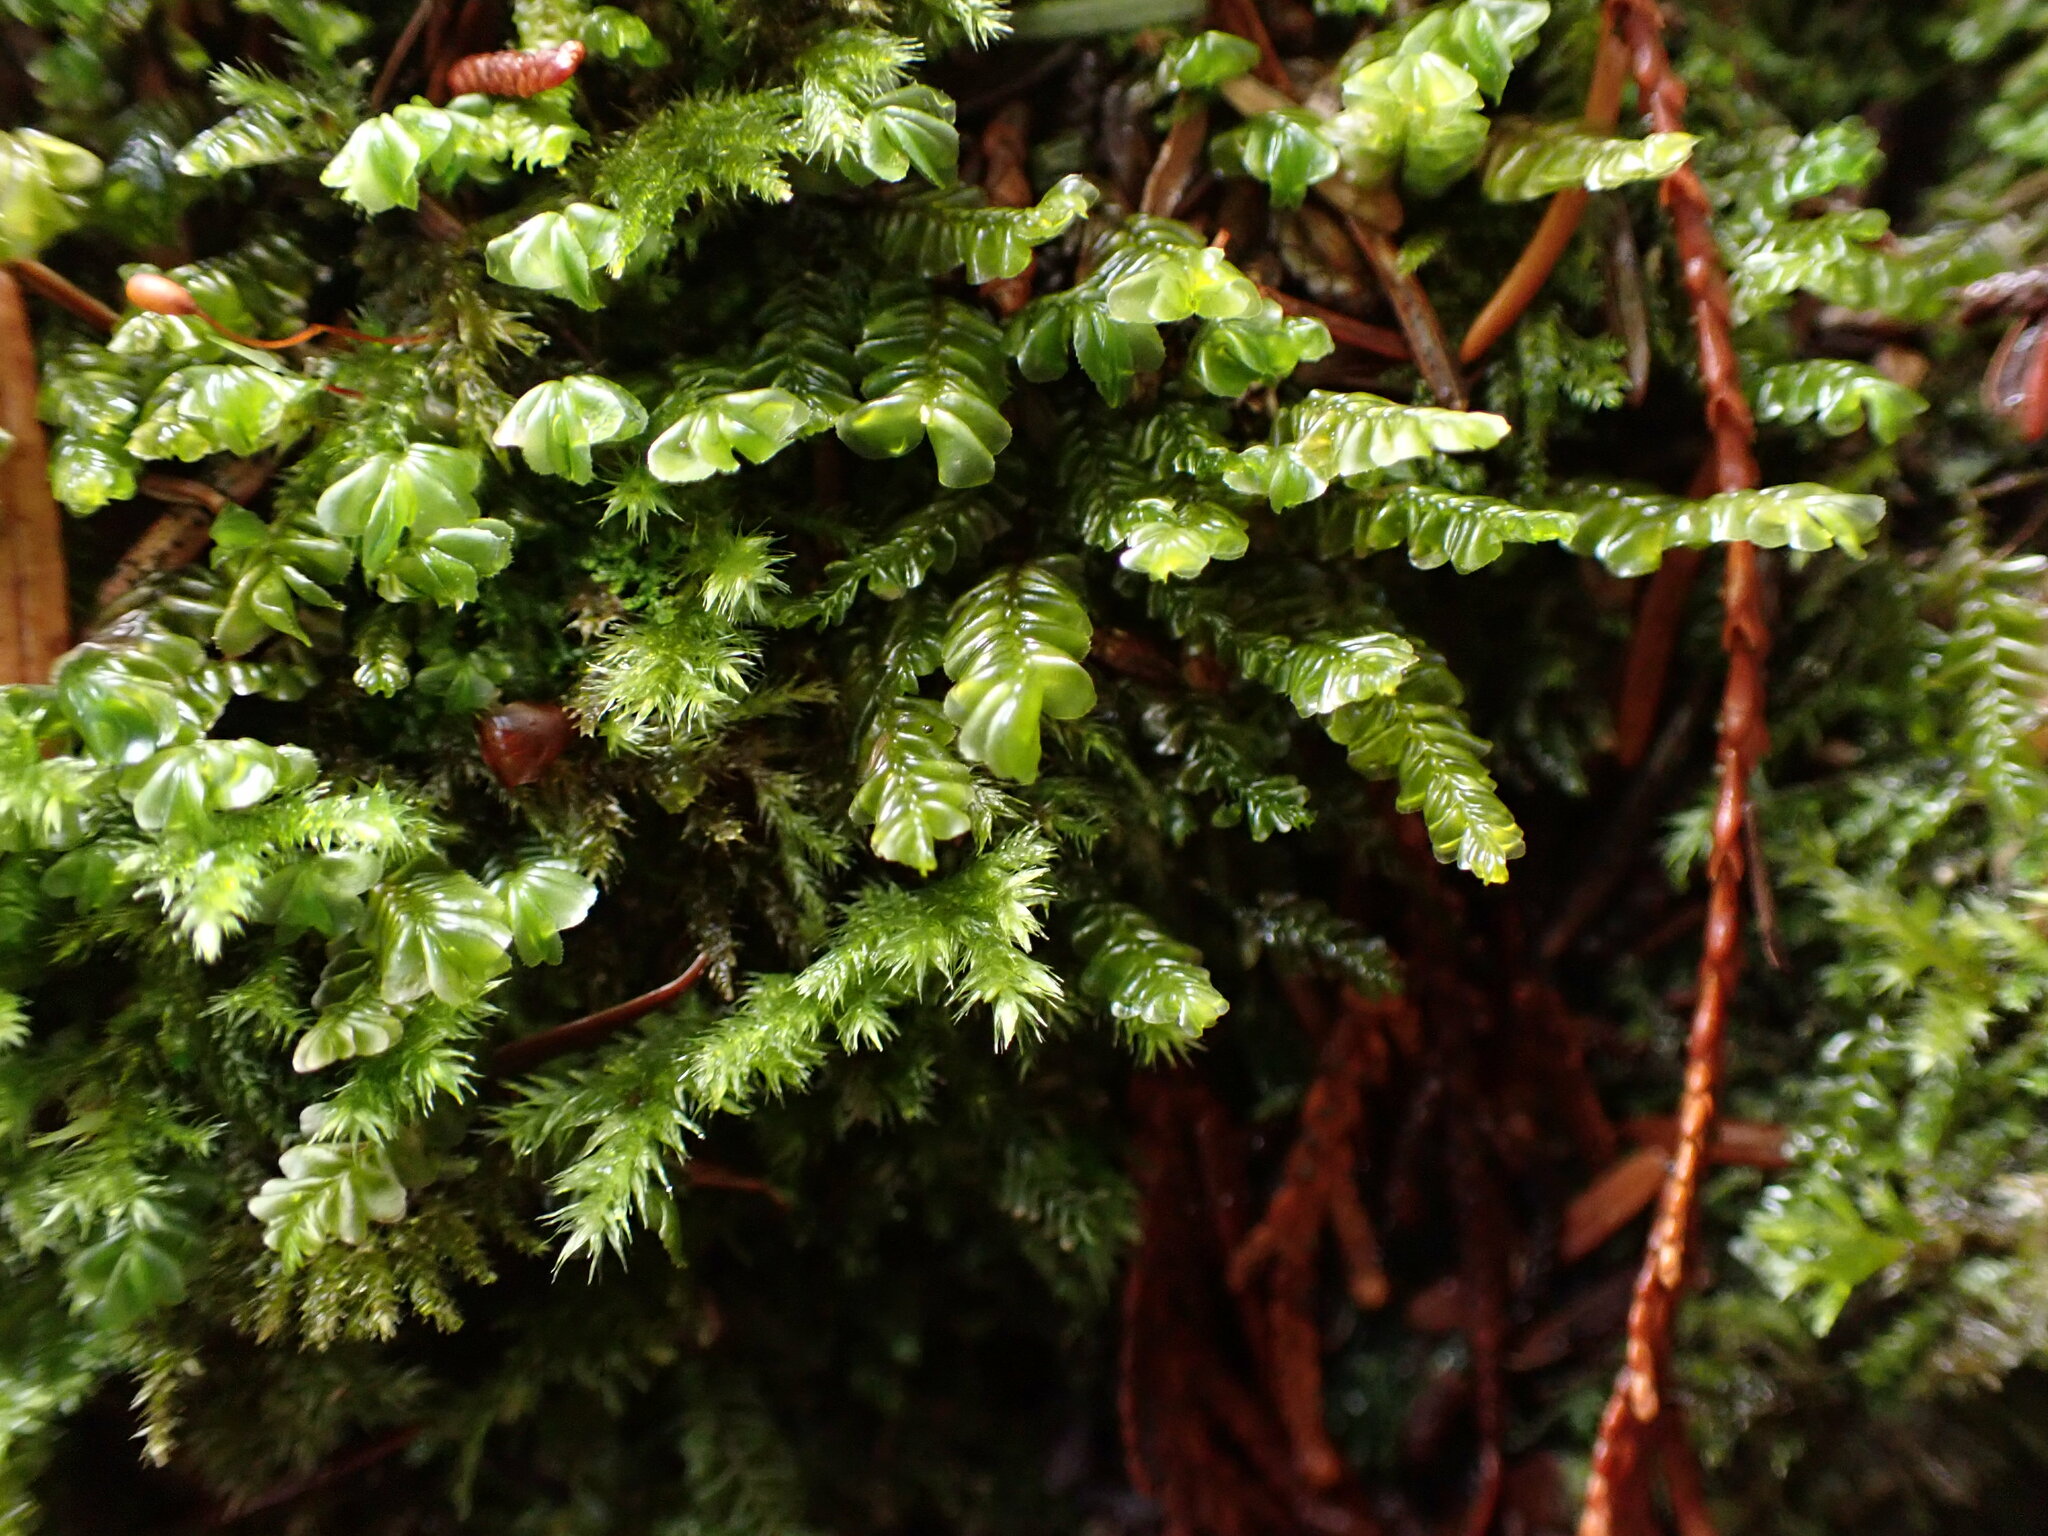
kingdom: Plantae
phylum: Marchantiophyta
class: Jungermanniopsida
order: Jungermanniales
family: Plagiochilaceae
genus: Plagiochila
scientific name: Plagiochila porelloides
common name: Lesser featherwort
